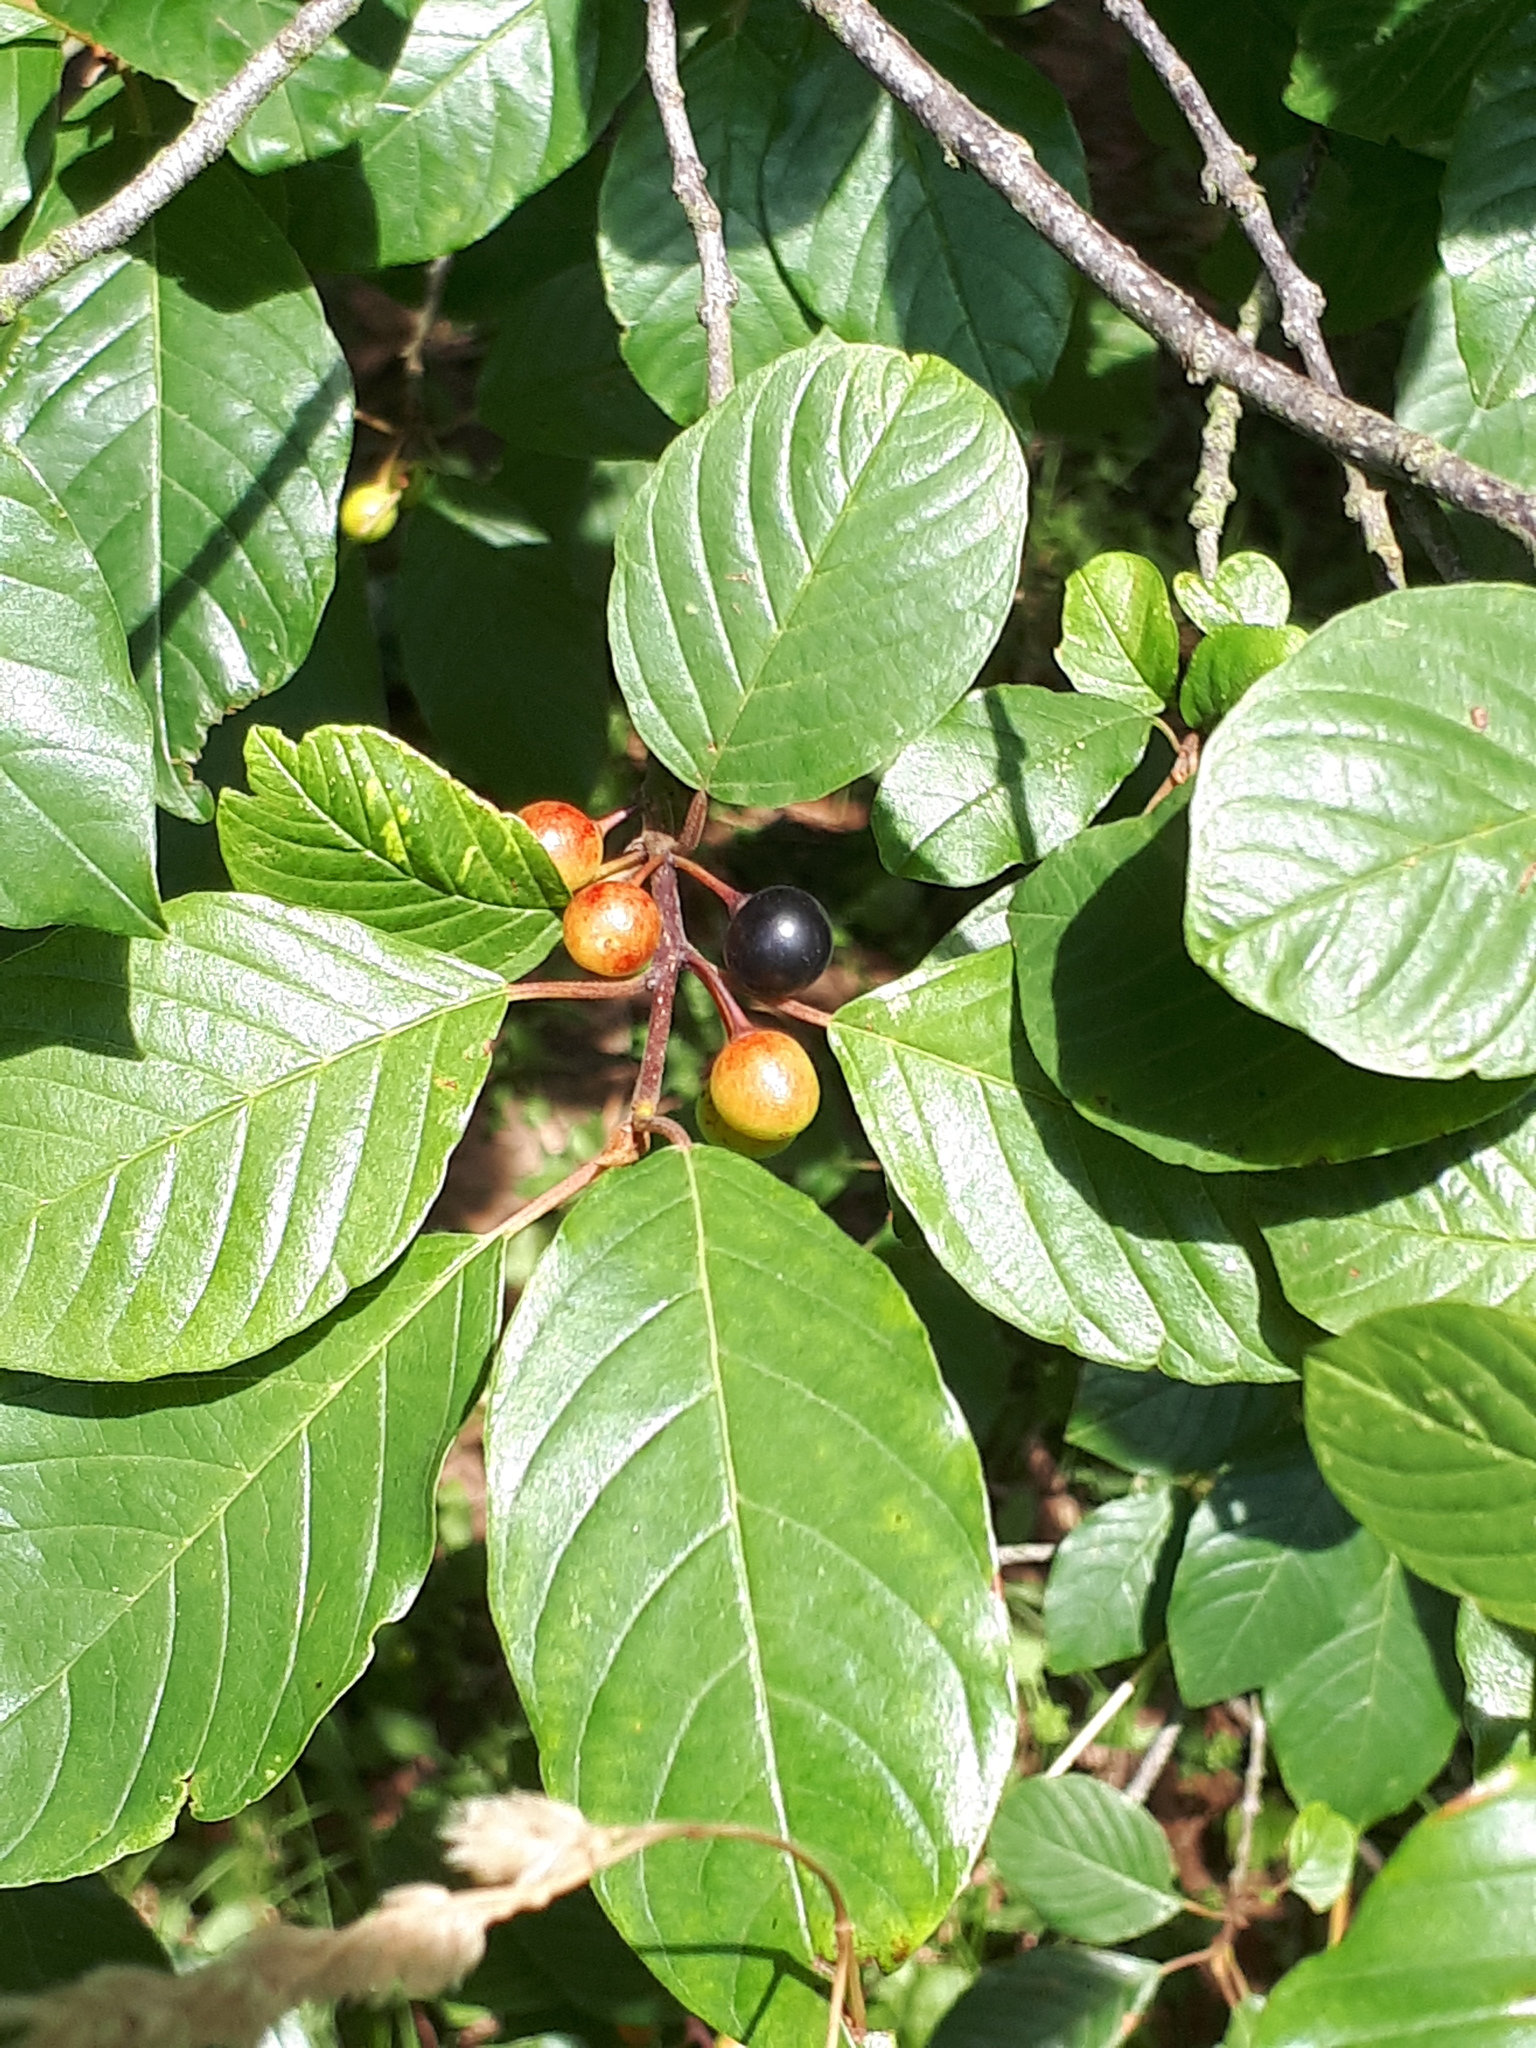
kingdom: Plantae
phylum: Tracheophyta
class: Magnoliopsida
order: Rosales
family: Rhamnaceae
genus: Frangula
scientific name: Frangula alnus
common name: Alder buckthorn
